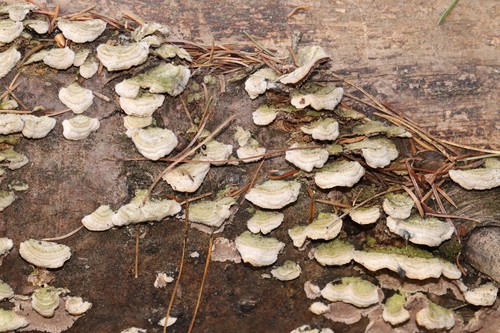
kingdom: Fungi
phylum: Basidiomycota
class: Agaricomycetes
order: Hymenochaetales
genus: Trichaptum
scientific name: Trichaptum fuscoviolaceum
